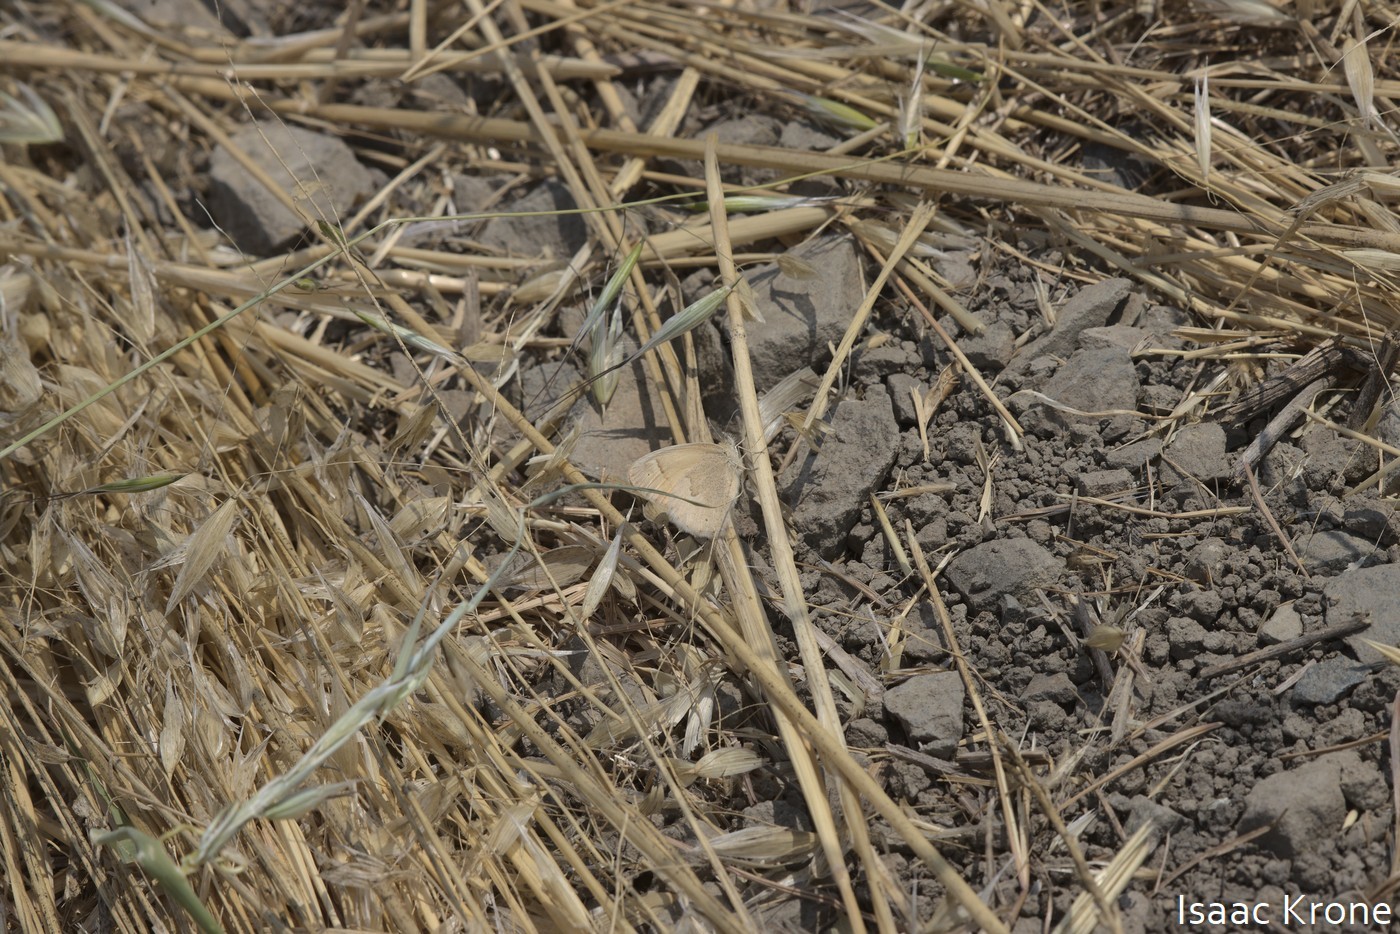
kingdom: Animalia
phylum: Arthropoda
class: Insecta
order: Lepidoptera
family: Nymphalidae
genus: Coenonympha
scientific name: Coenonympha california
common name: Common ringlet
